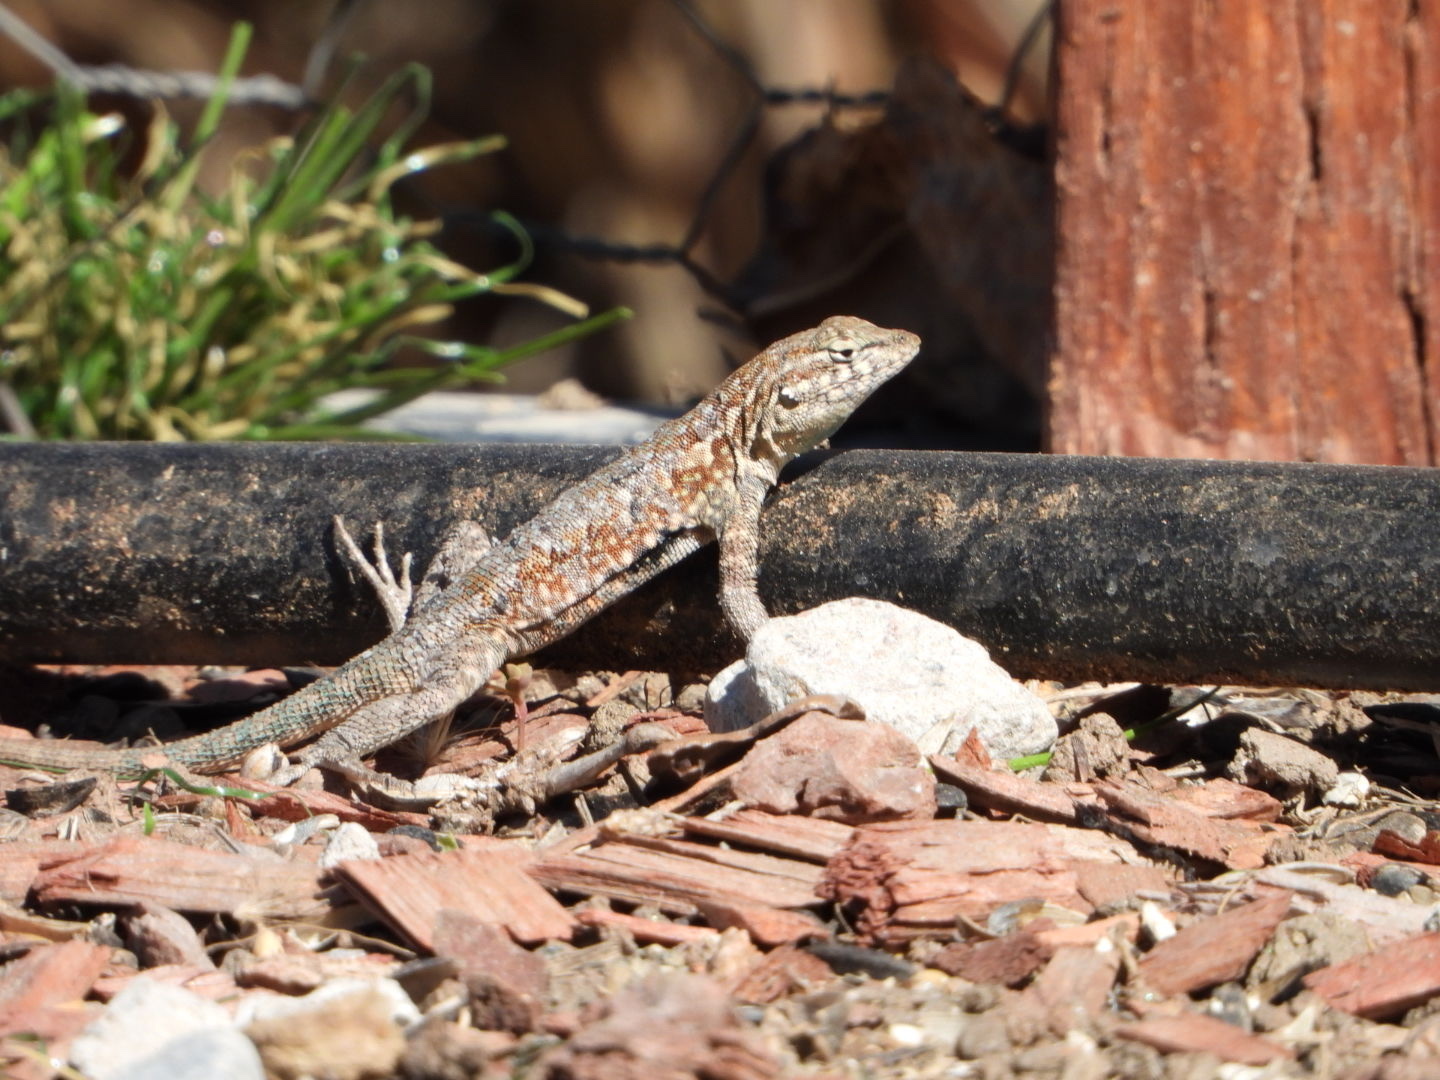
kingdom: Animalia
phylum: Chordata
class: Squamata
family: Phrynosomatidae
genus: Uta
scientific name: Uta stansburiana
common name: Side-blotched lizard
